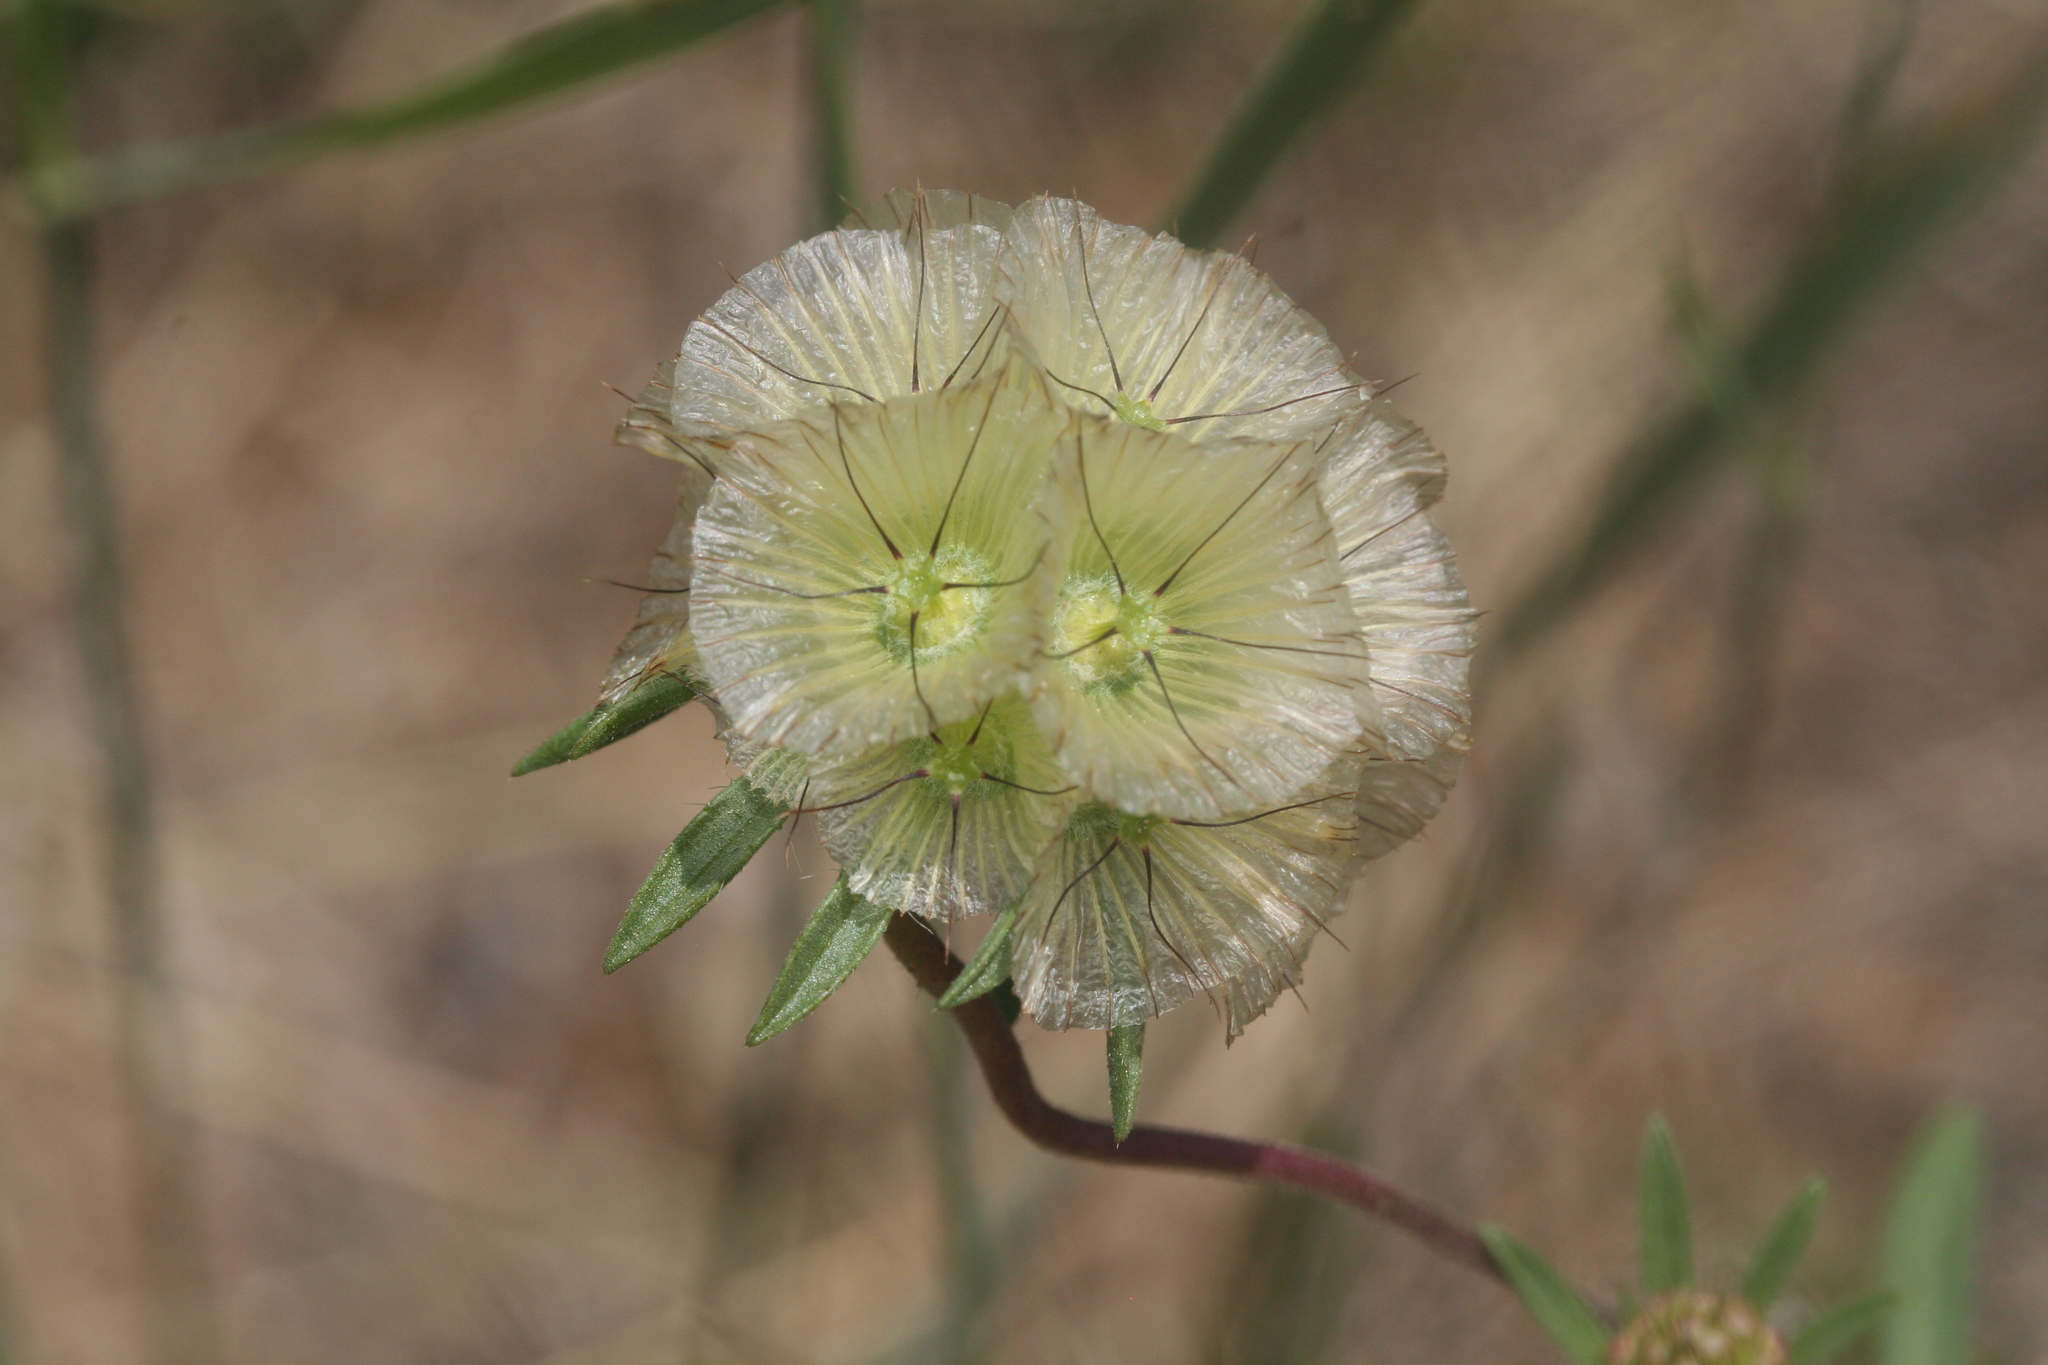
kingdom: Plantae
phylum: Tracheophyta
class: Magnoliopsida
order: Dipsacales
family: Caprifoliaceae
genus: Lomelosia
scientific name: Lomelosia rotata
